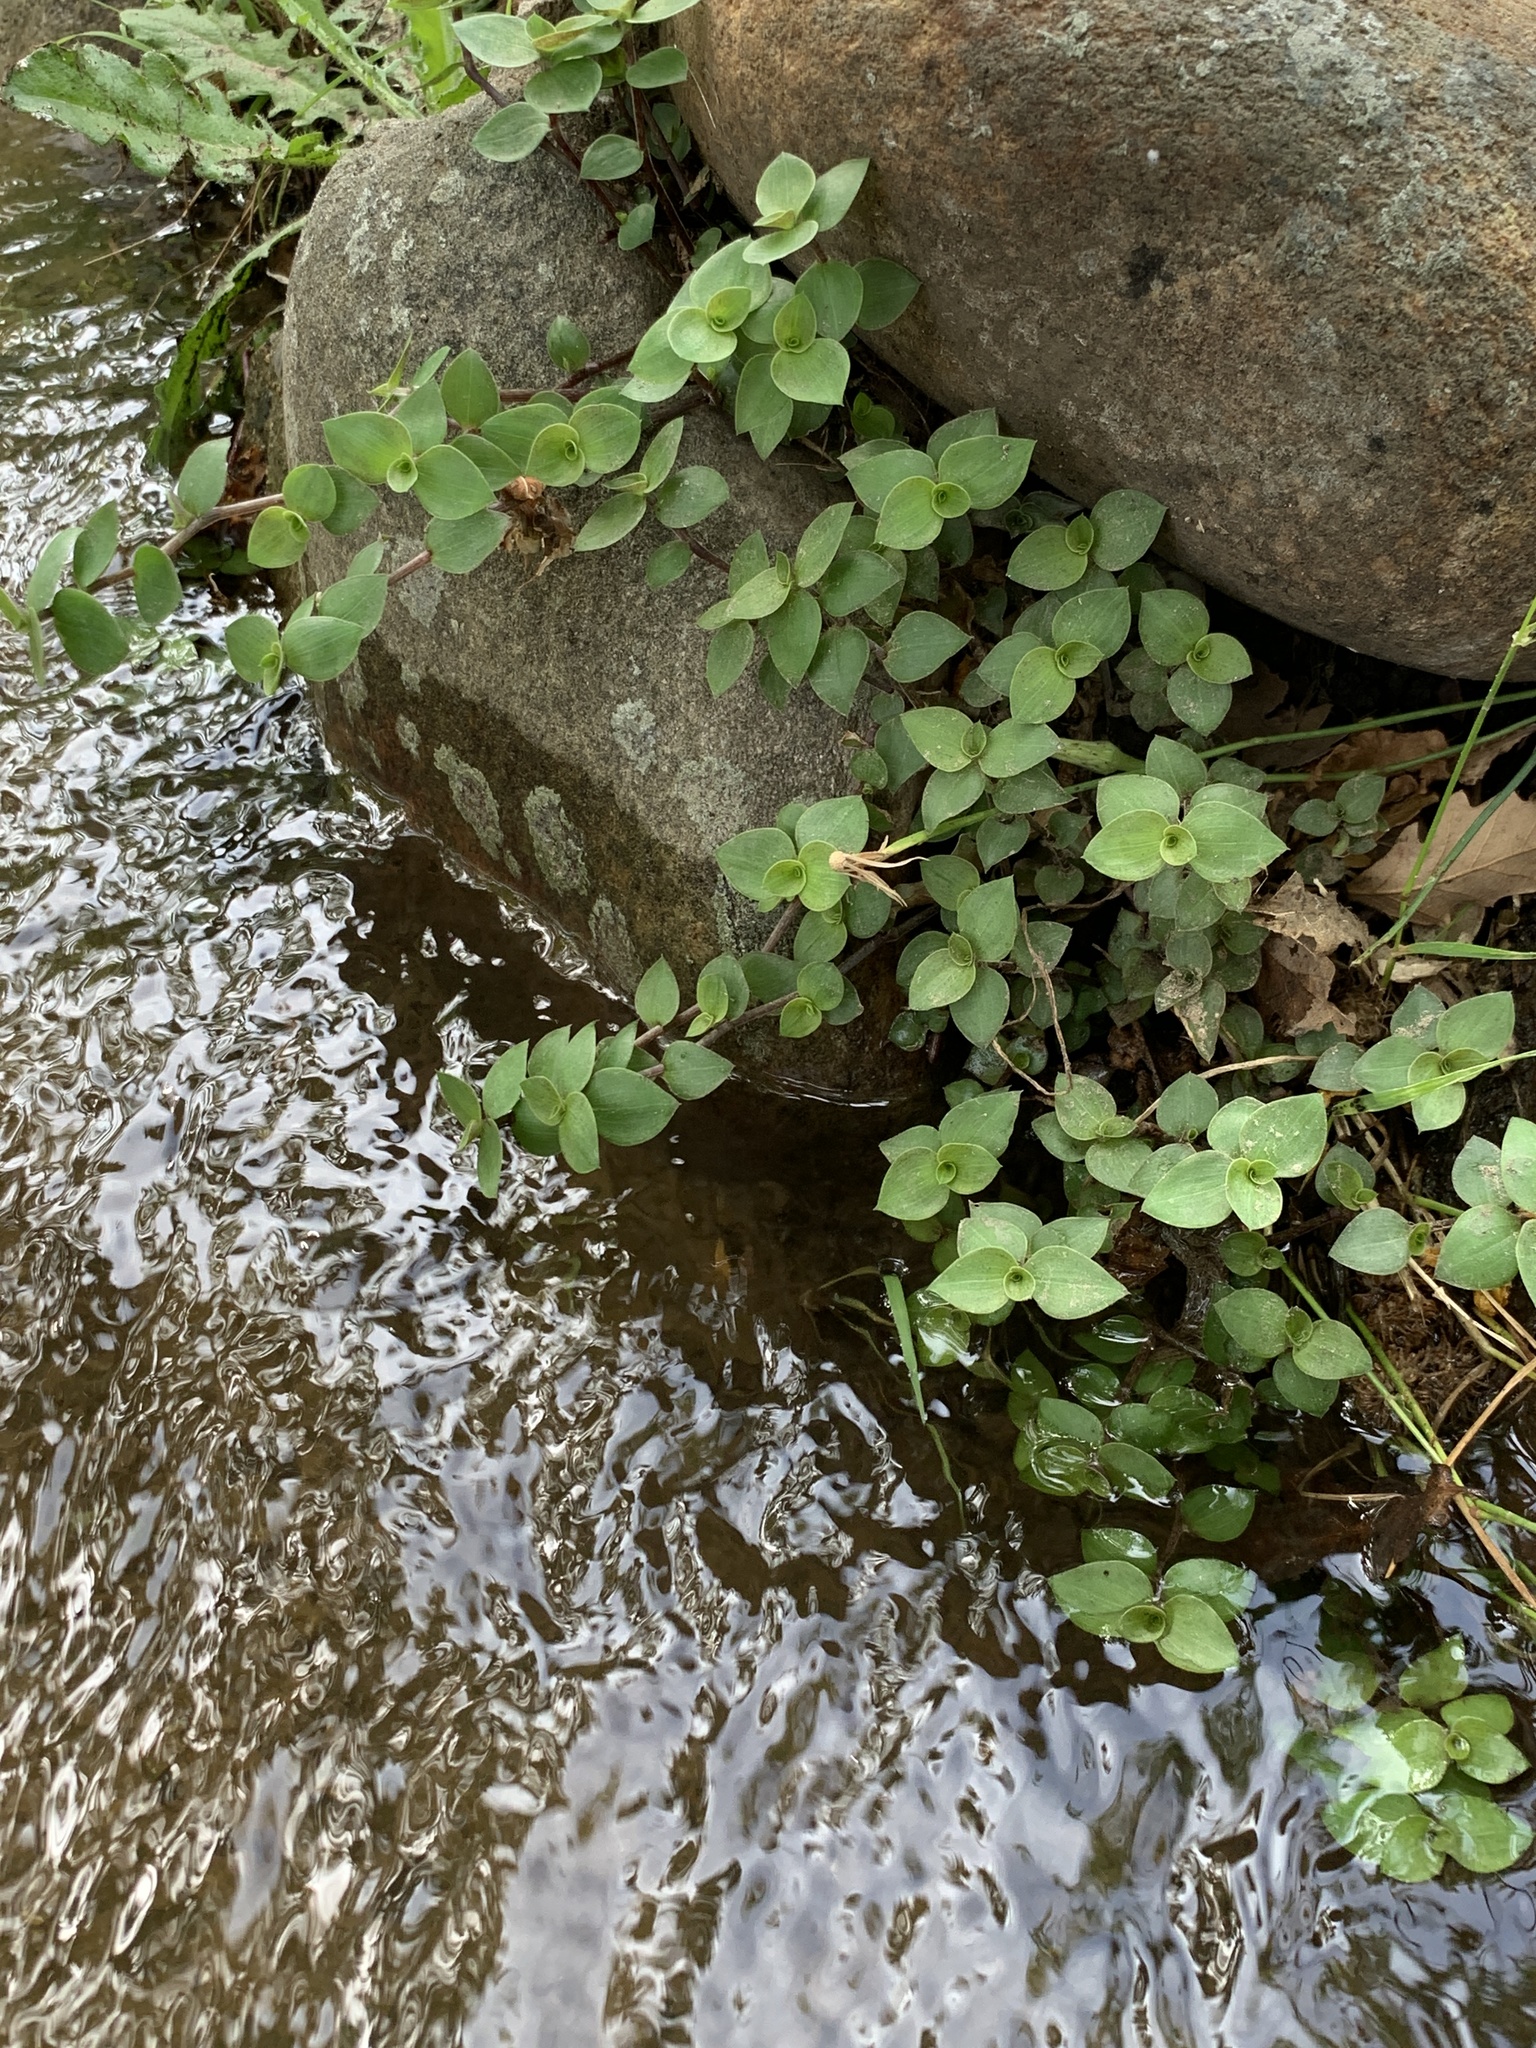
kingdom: Plantae
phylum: Tracheophyta
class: Liliopsida
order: Commelinales
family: Commelinaceae
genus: Callisia
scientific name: Callisia repens
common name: Creeping inchplant
